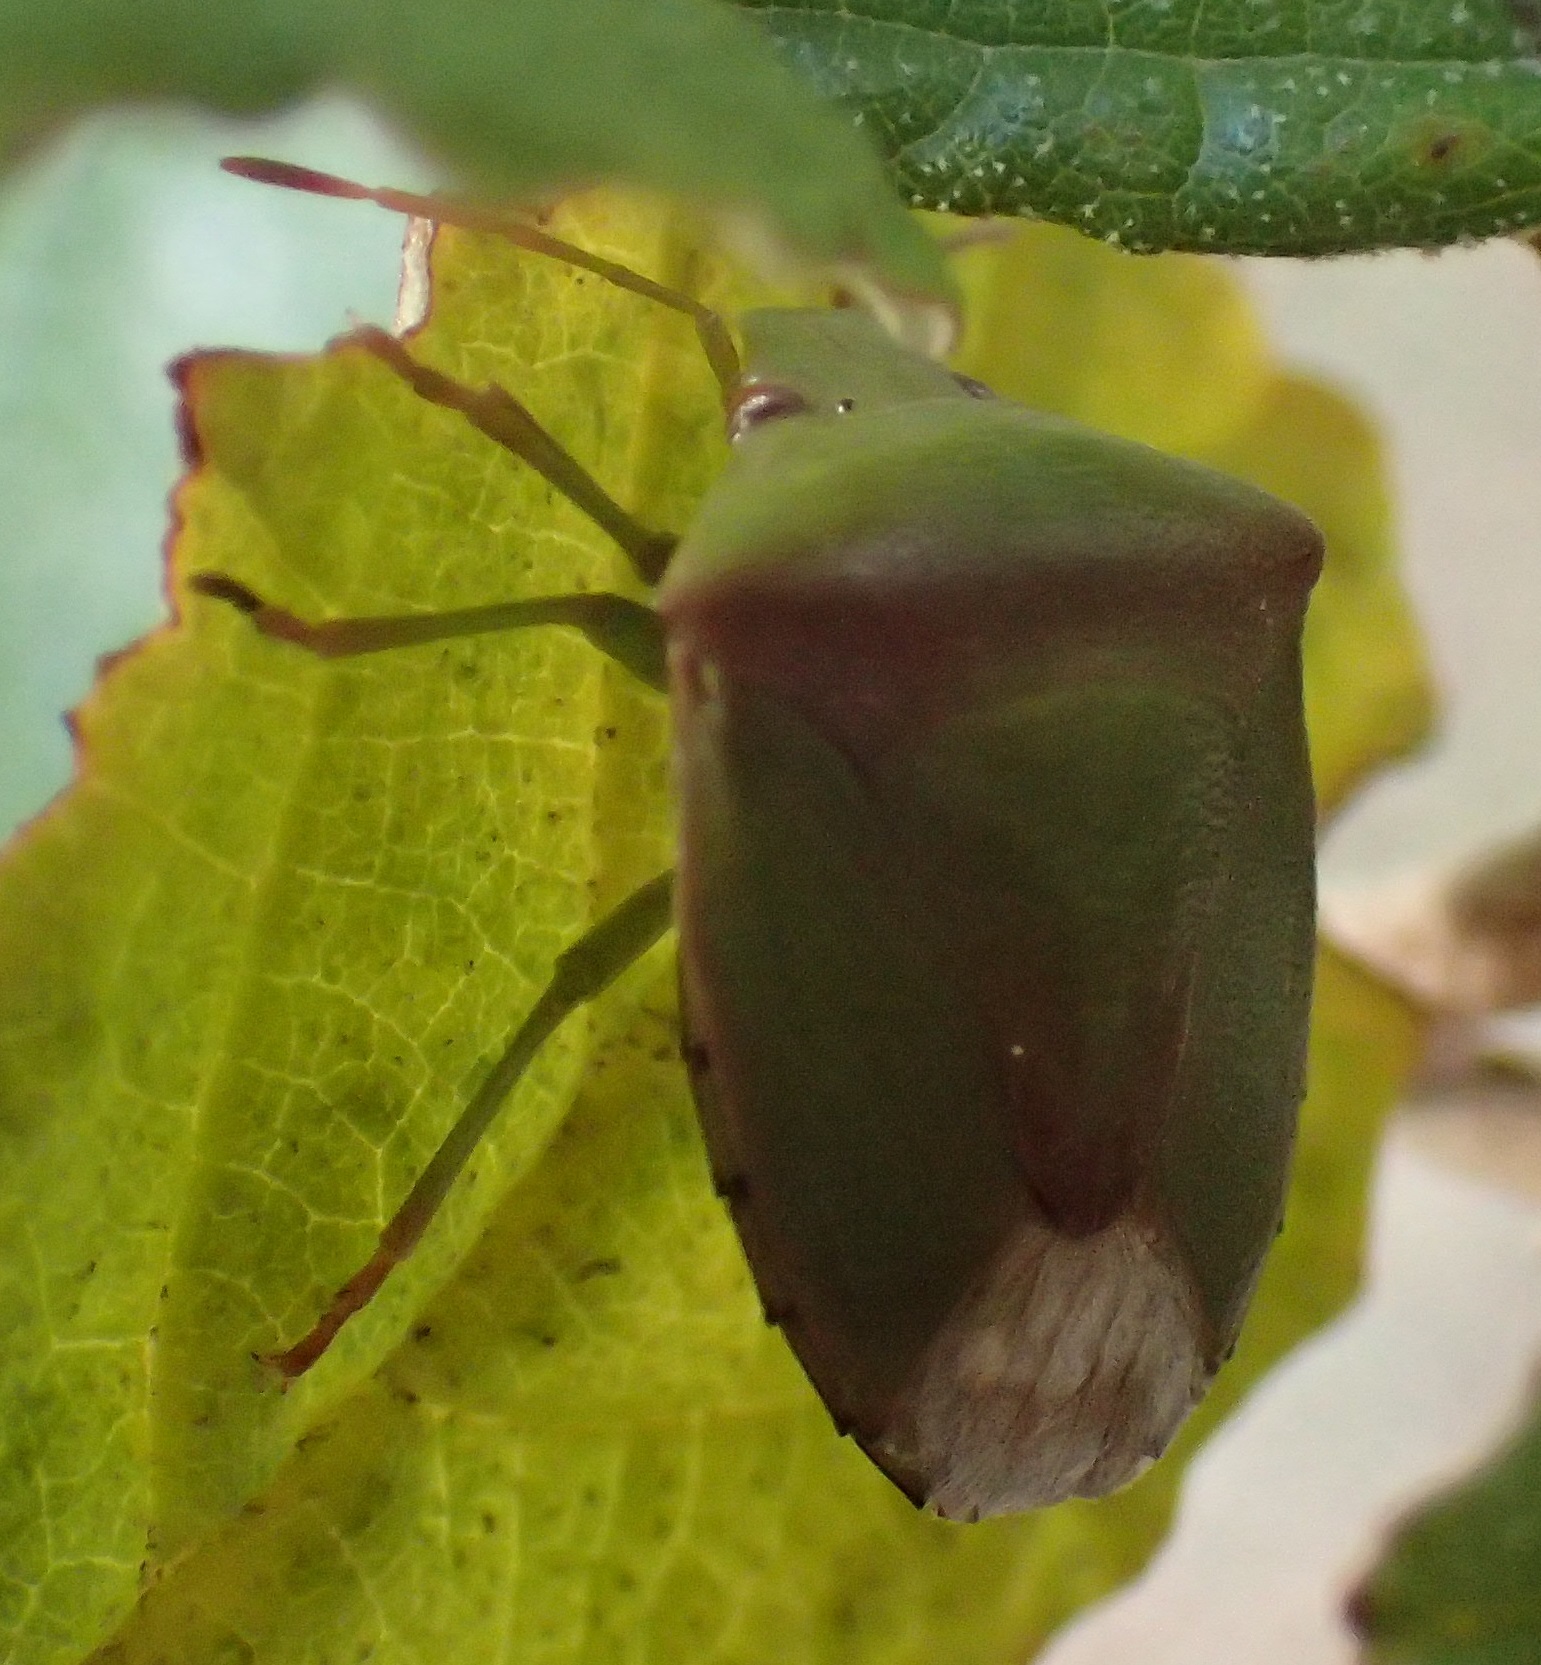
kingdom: Animalia
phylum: Arthropoda
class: Insecta
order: Hemiptera
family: Pentatomidae
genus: Cuspicona
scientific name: Cuspicona
